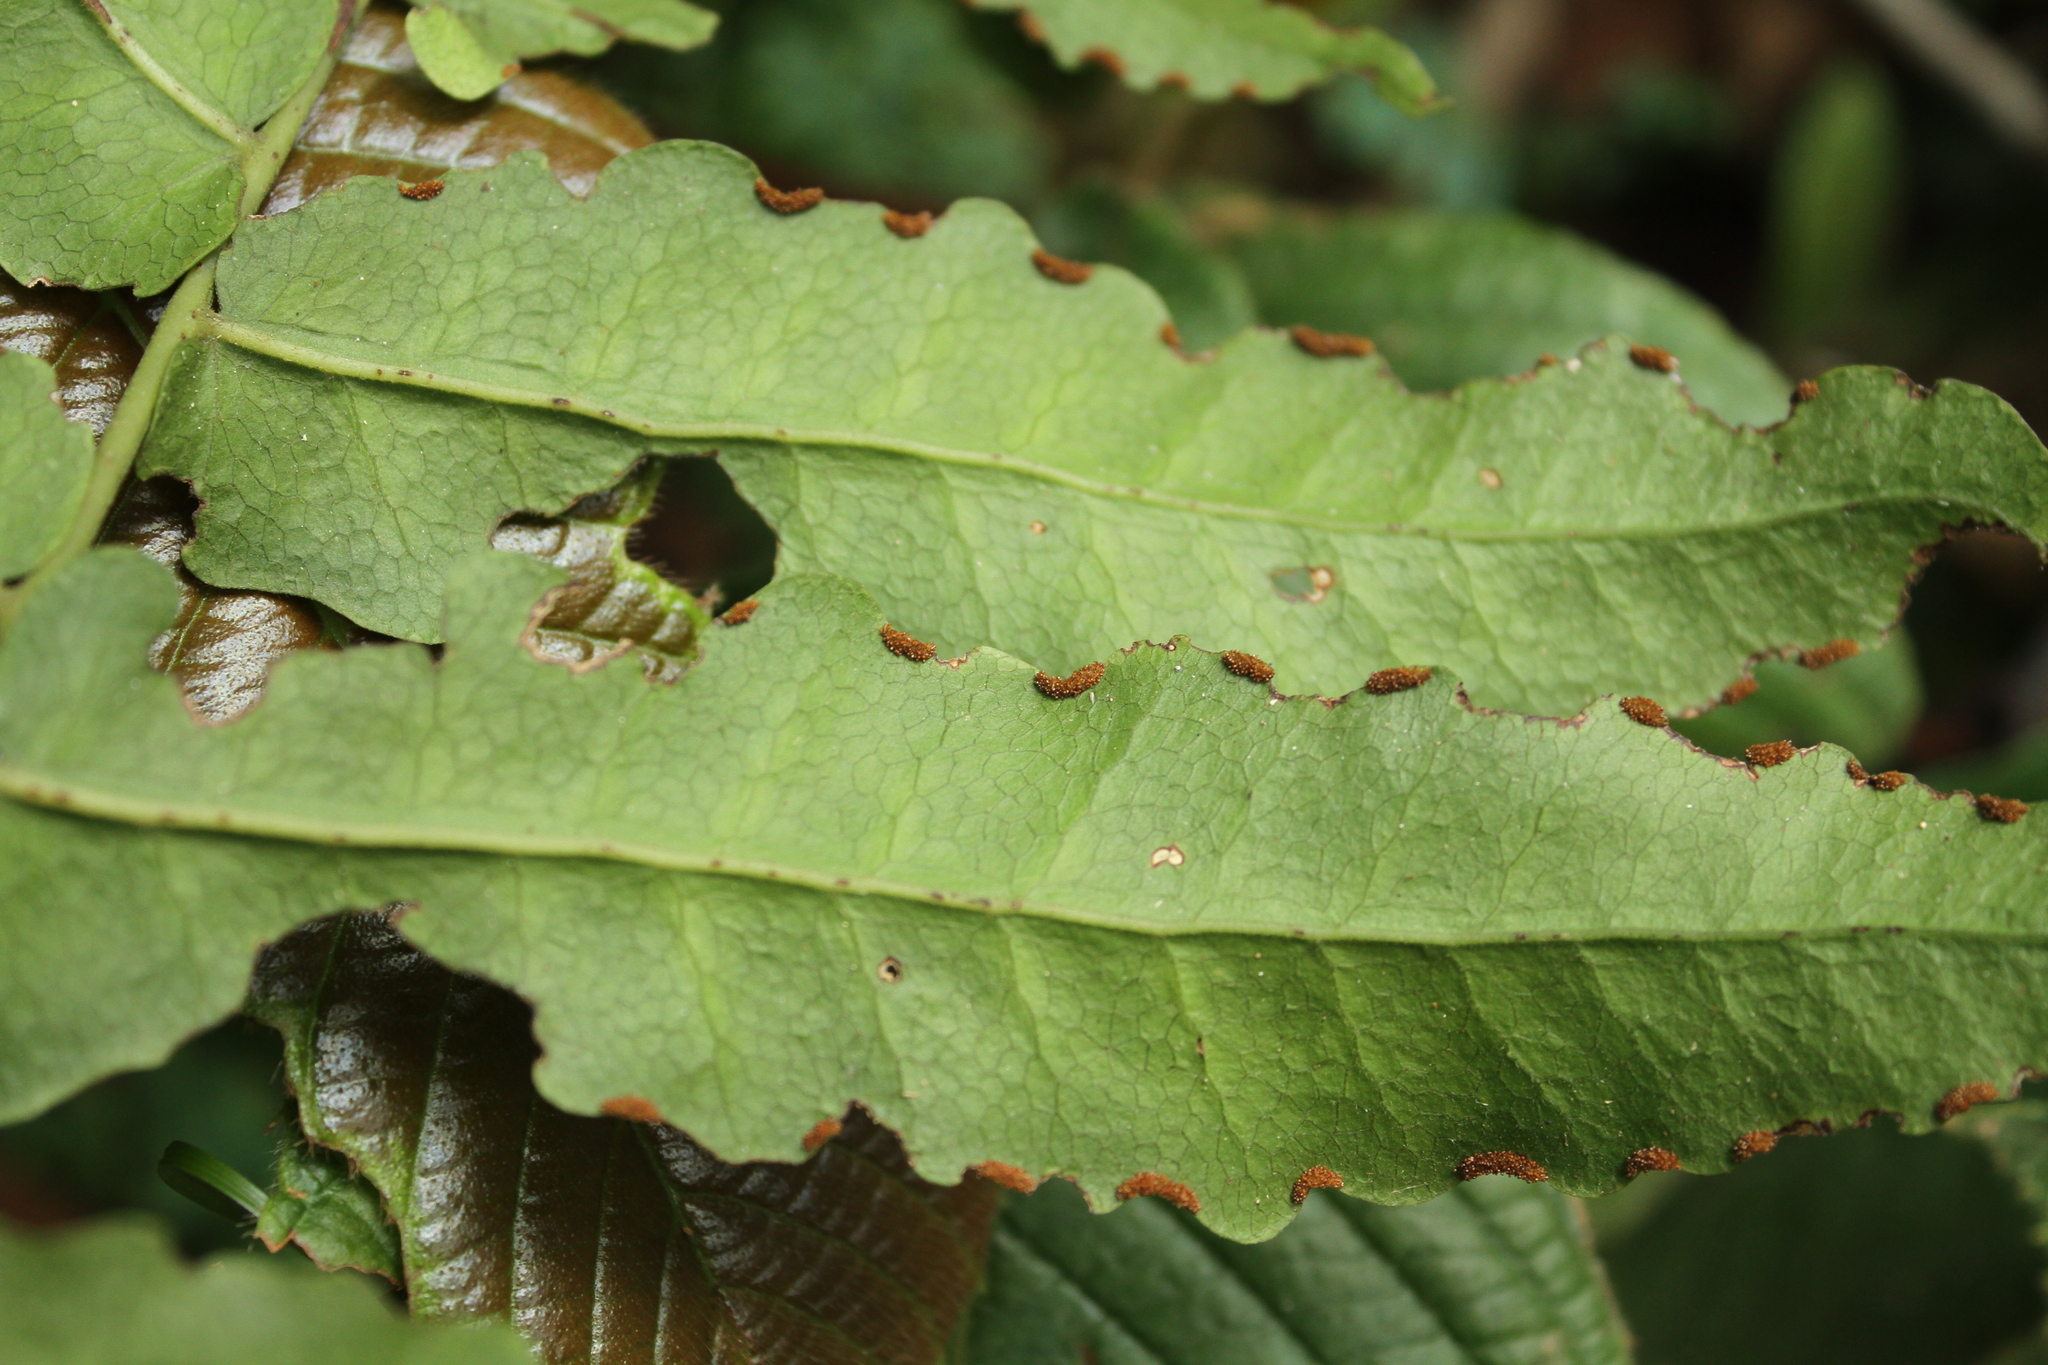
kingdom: Plantae
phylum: Tracheophyta
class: Polypodiopsida
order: Polypodiales
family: Dennstaedtiaceae
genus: Blotiella
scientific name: Blotiella currorii
